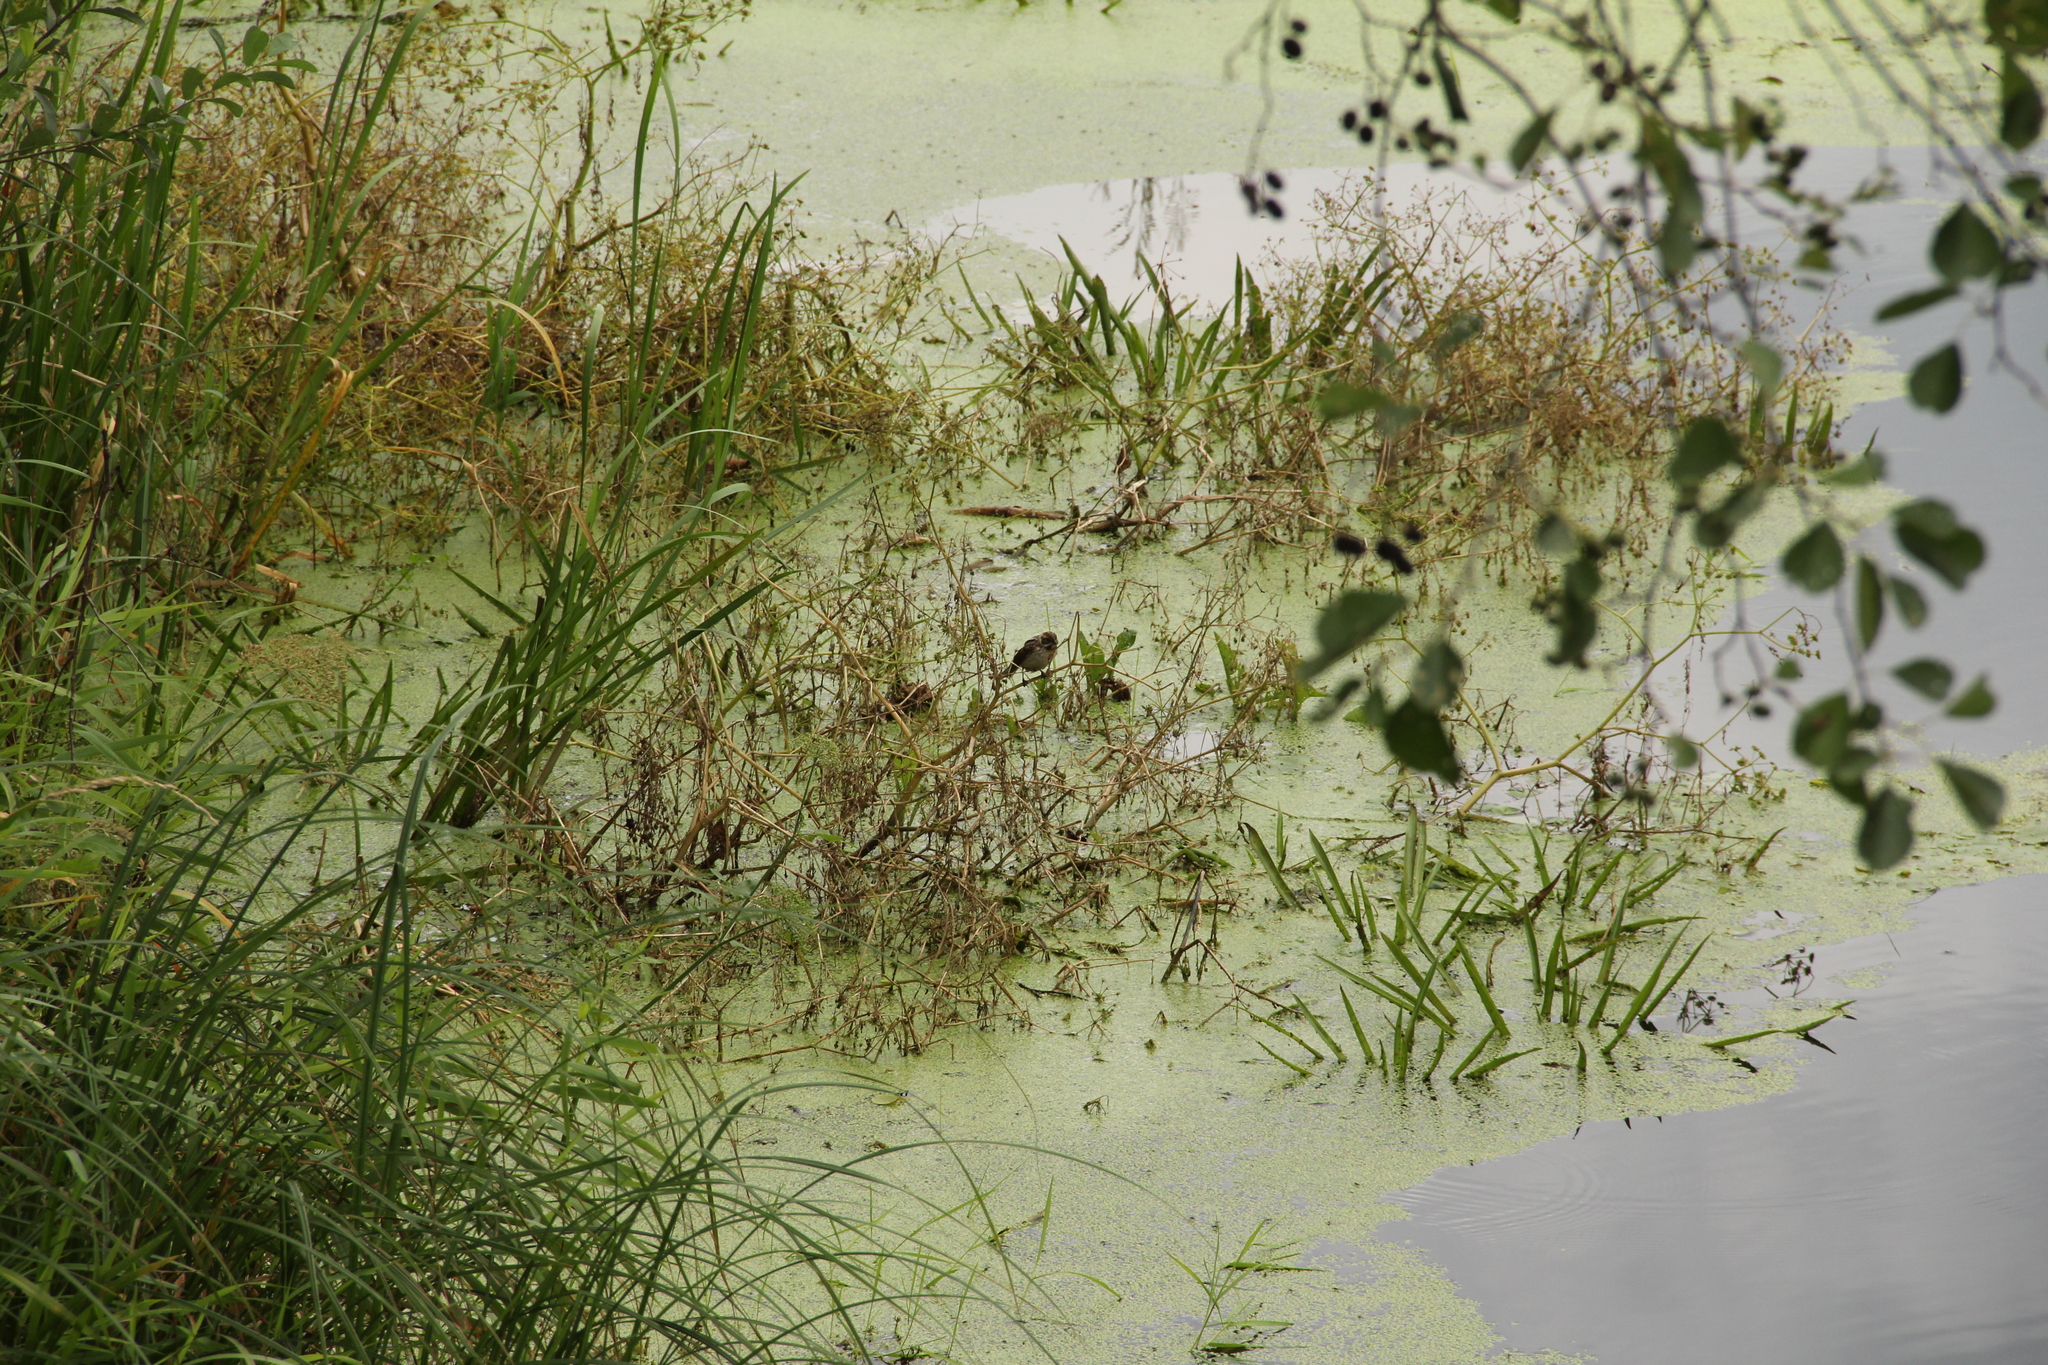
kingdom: Animalia
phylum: Chordata
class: Aves
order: Passeriformes
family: Emberizidae
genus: Emberiza
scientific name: Emberiza schoeniclus
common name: Reed bunting
